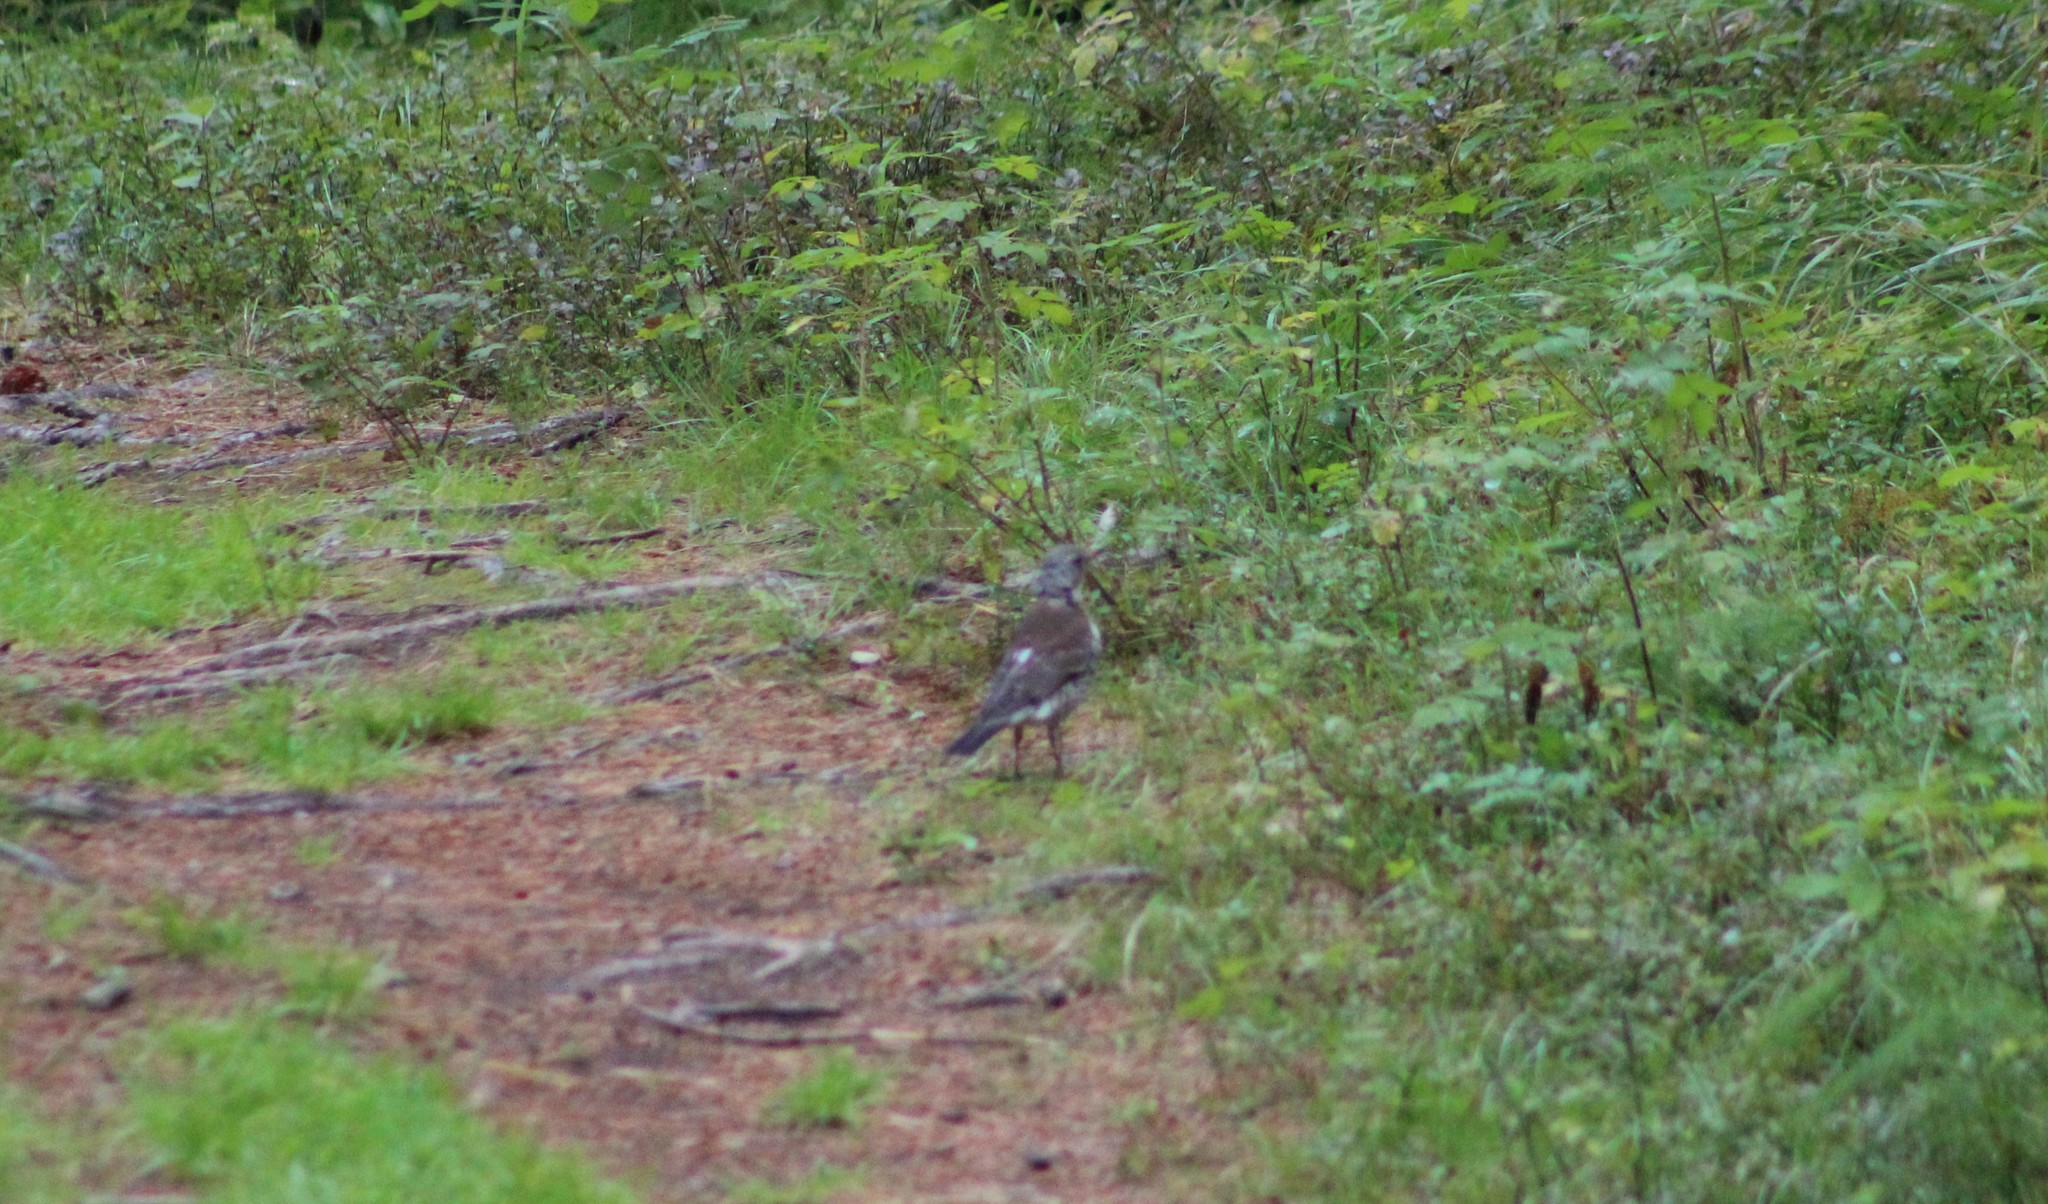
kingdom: Animalia
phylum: Chordata
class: Aves
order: Passeriformes
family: Turdidae
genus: Turdus
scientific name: Turdus pilaris
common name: Fieldfare
